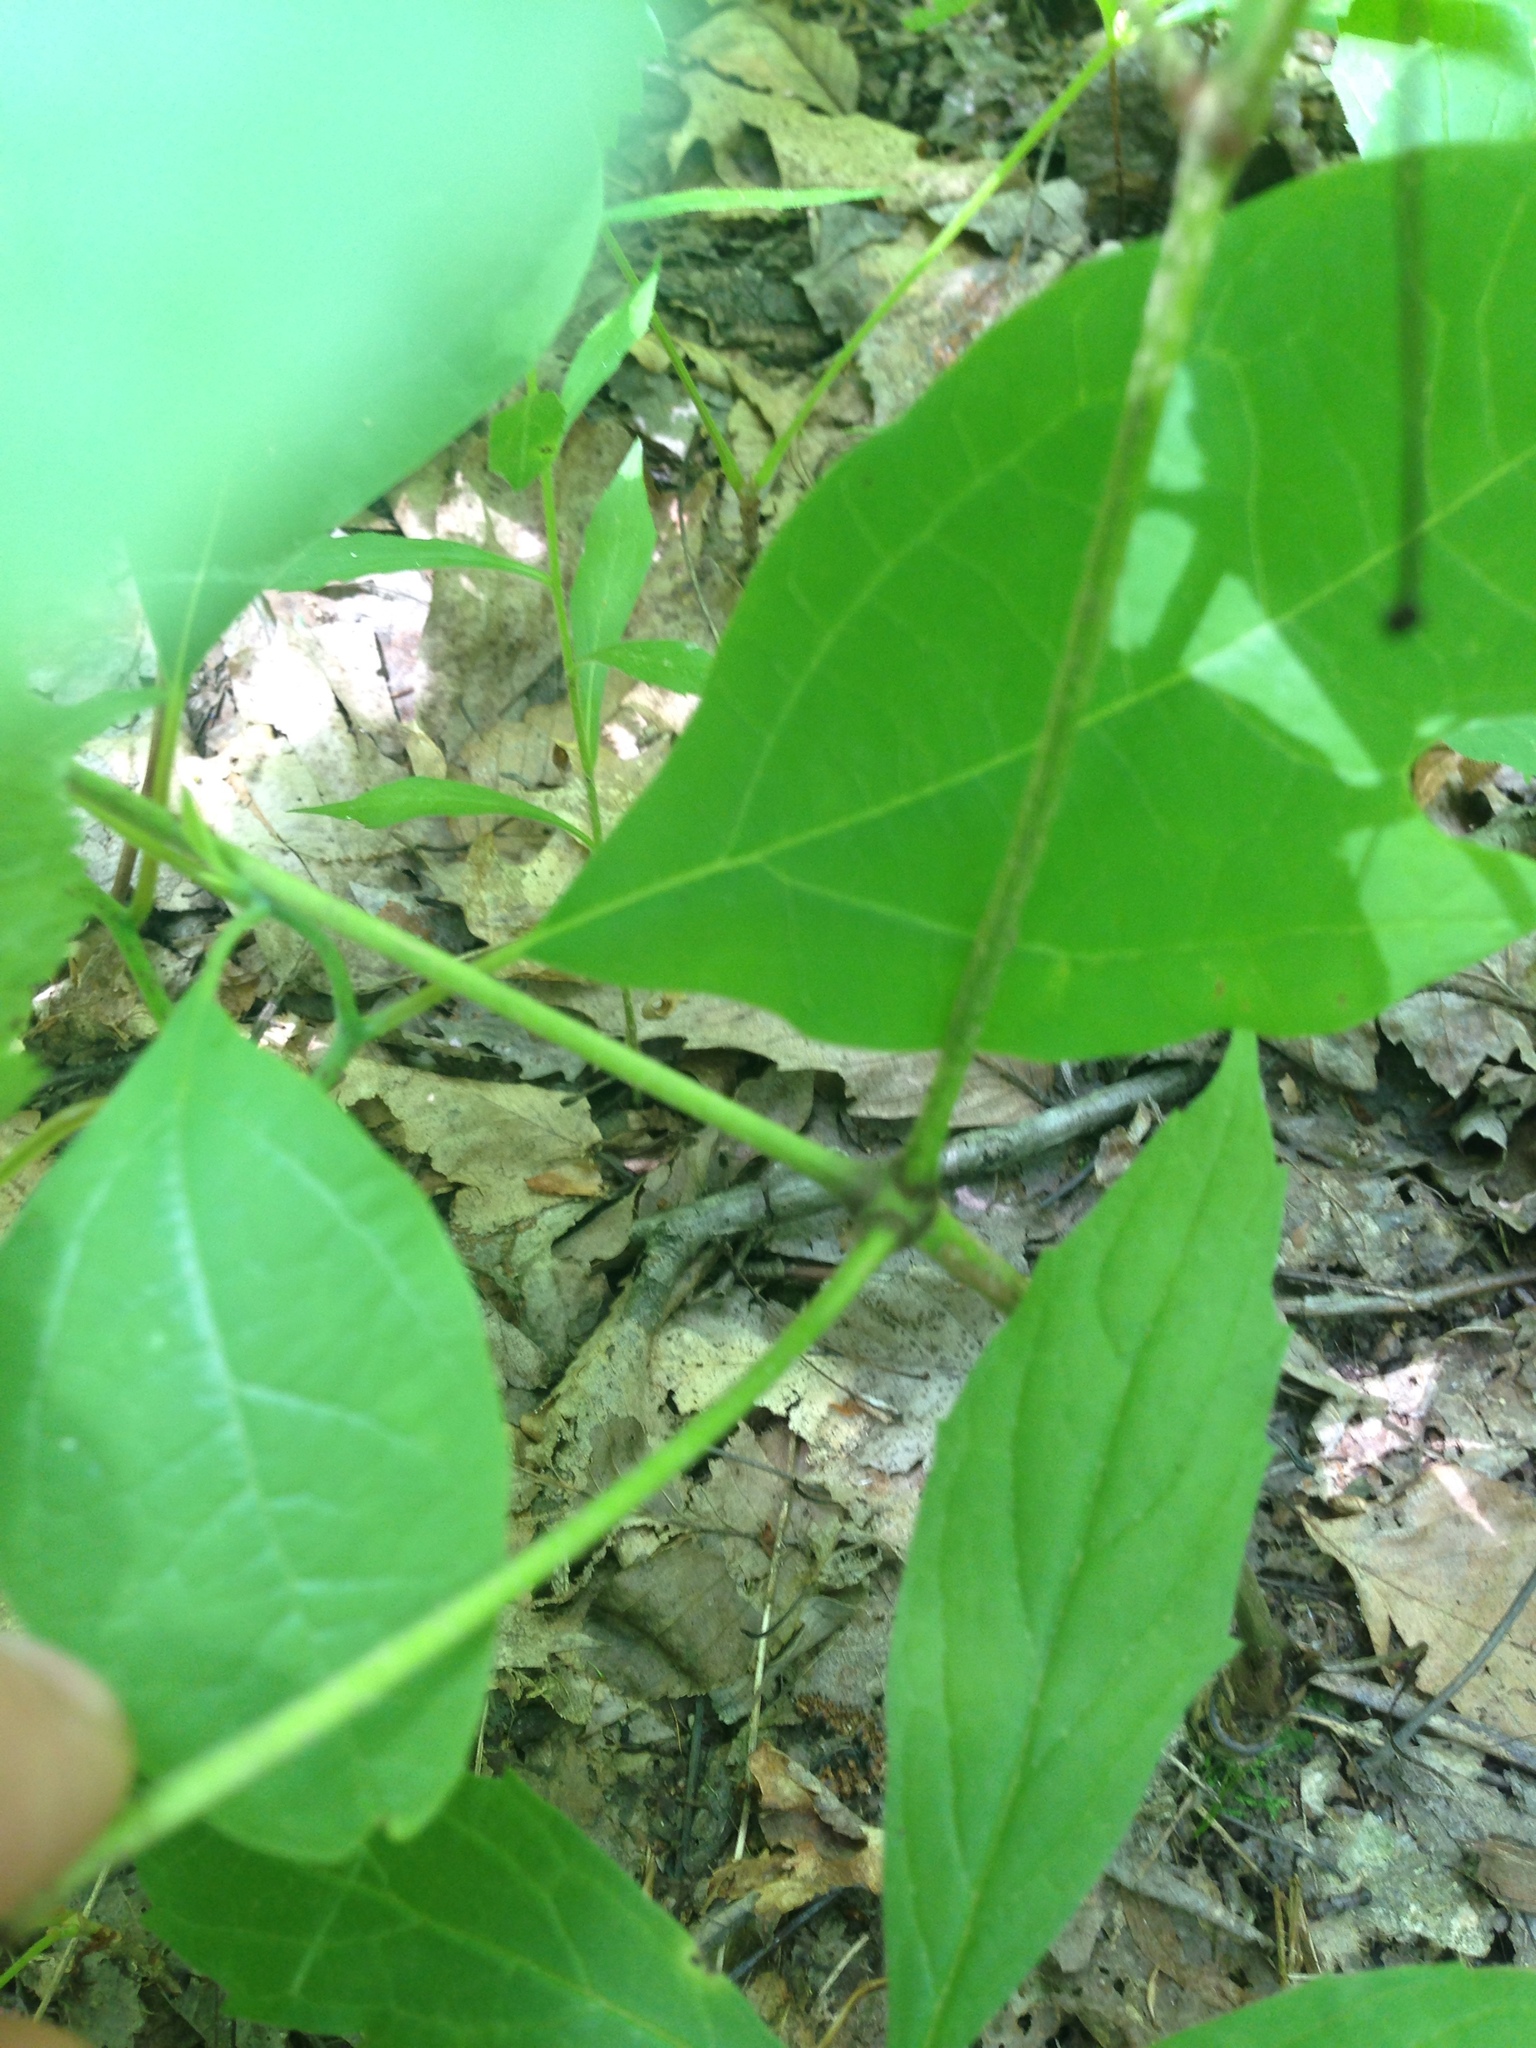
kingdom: Plantae
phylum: Tracheophyta
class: Magnoliopsida
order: Apiales
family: Araliaceae
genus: Aralia
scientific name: Aralia nudicaulis
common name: Wild sarsaparilla
